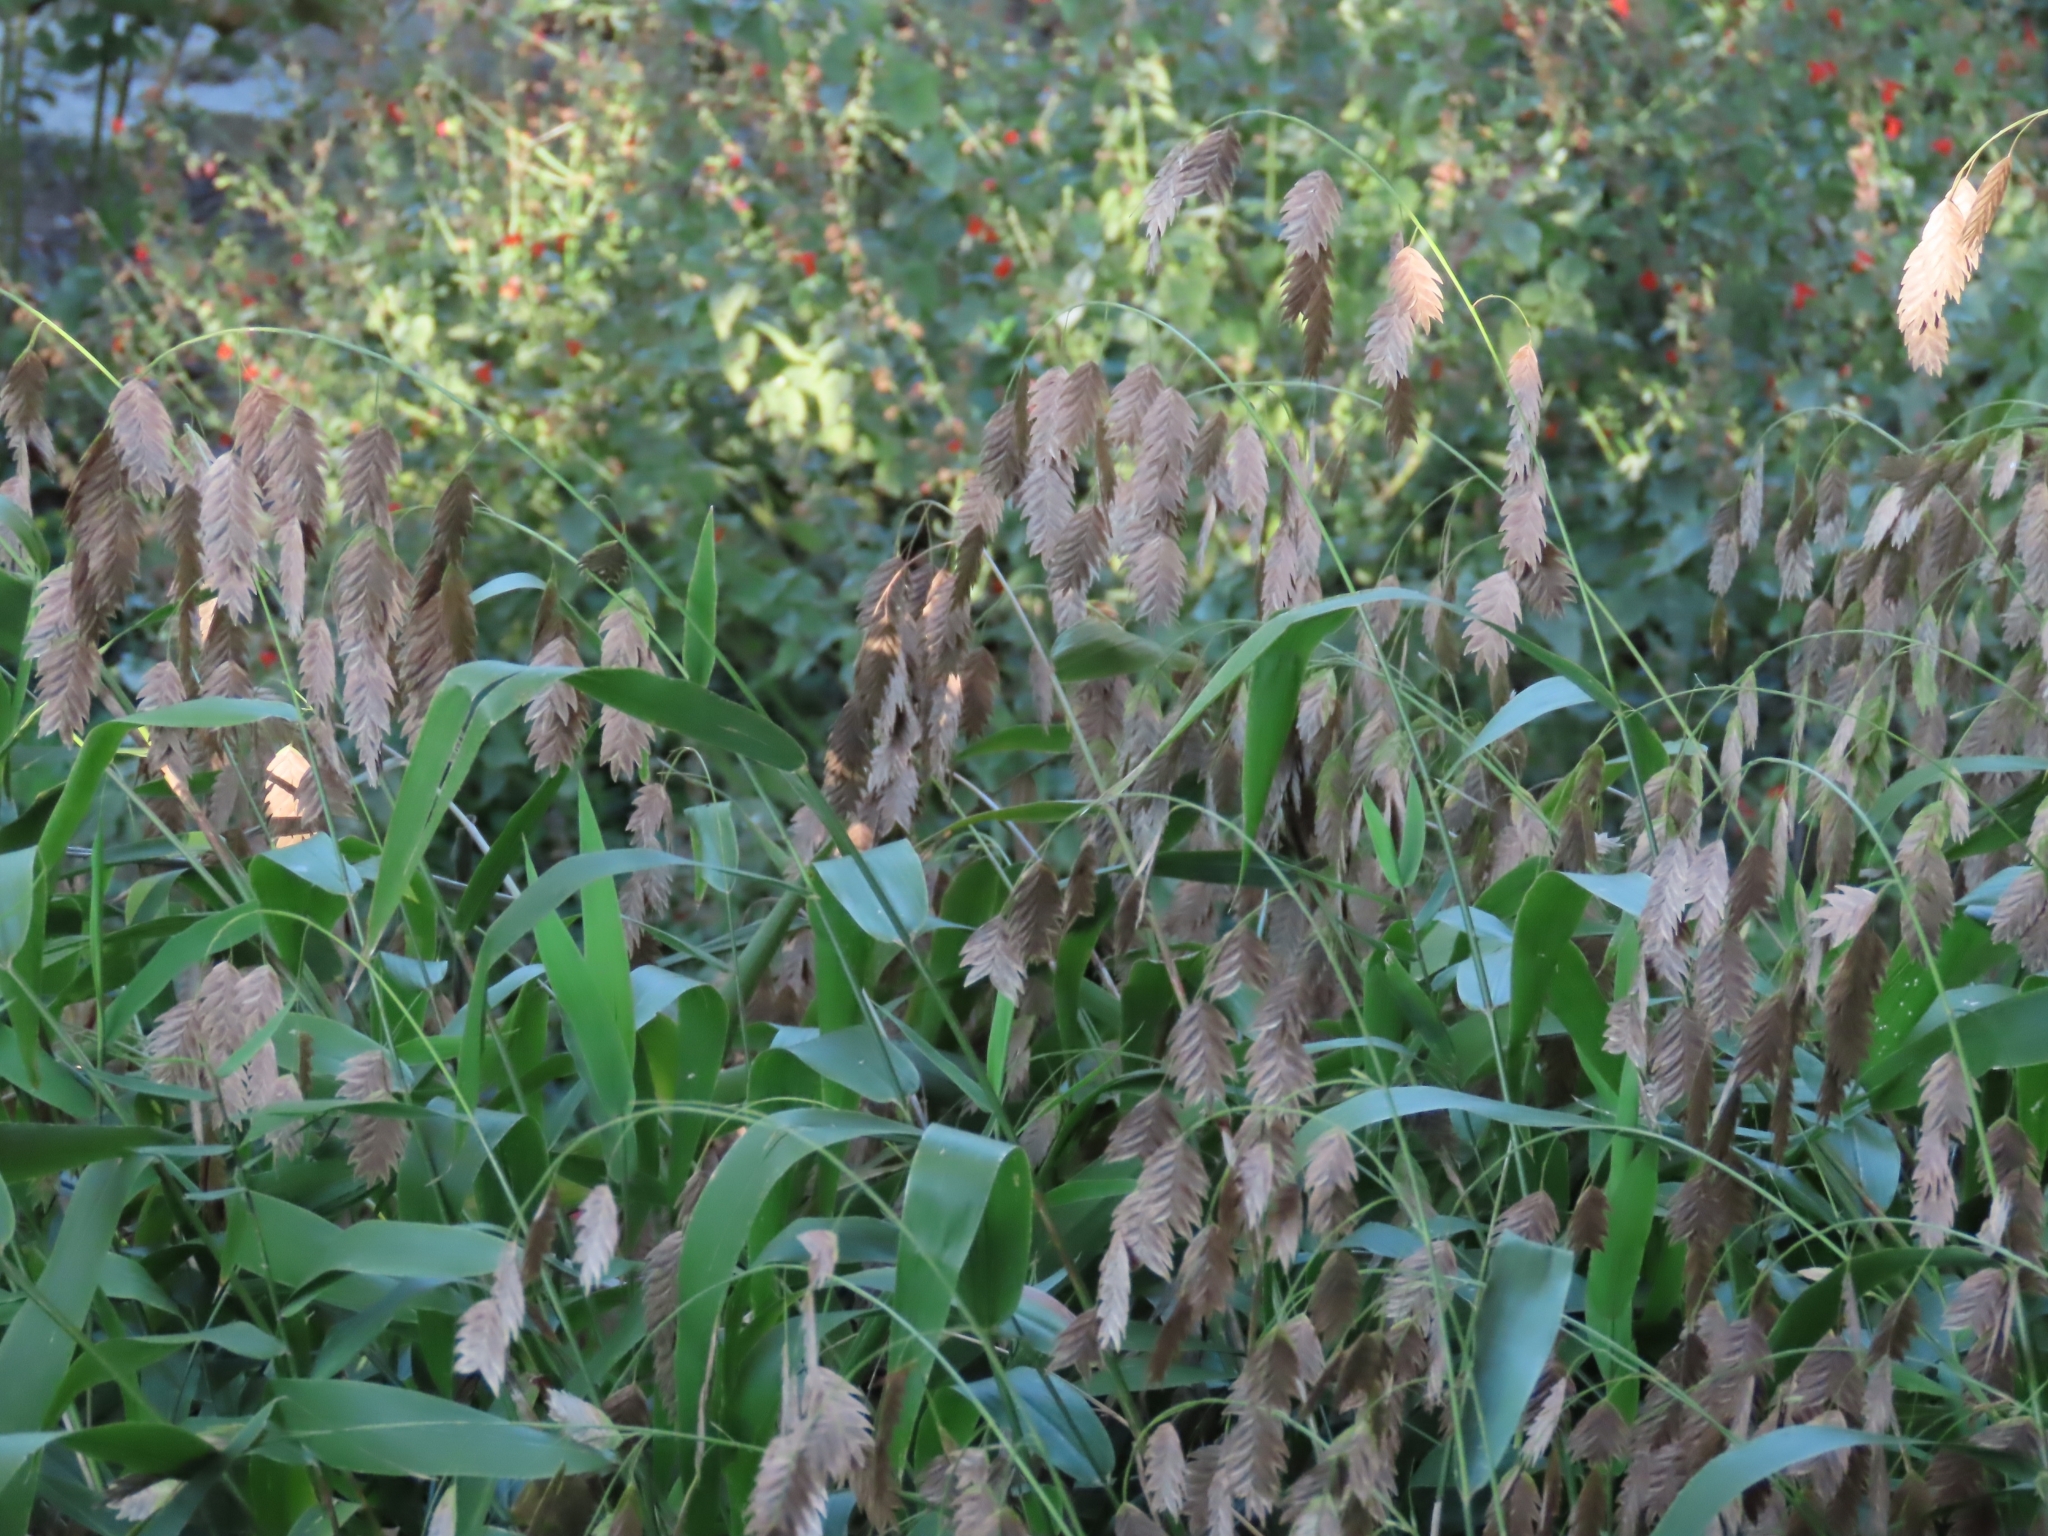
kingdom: Plantae
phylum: Tracheophyta
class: Liliopsida
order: Poales
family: Poaceae
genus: Chasmanthium
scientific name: Chasmanthium latifolium
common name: Broad-leaved chasmanthium
